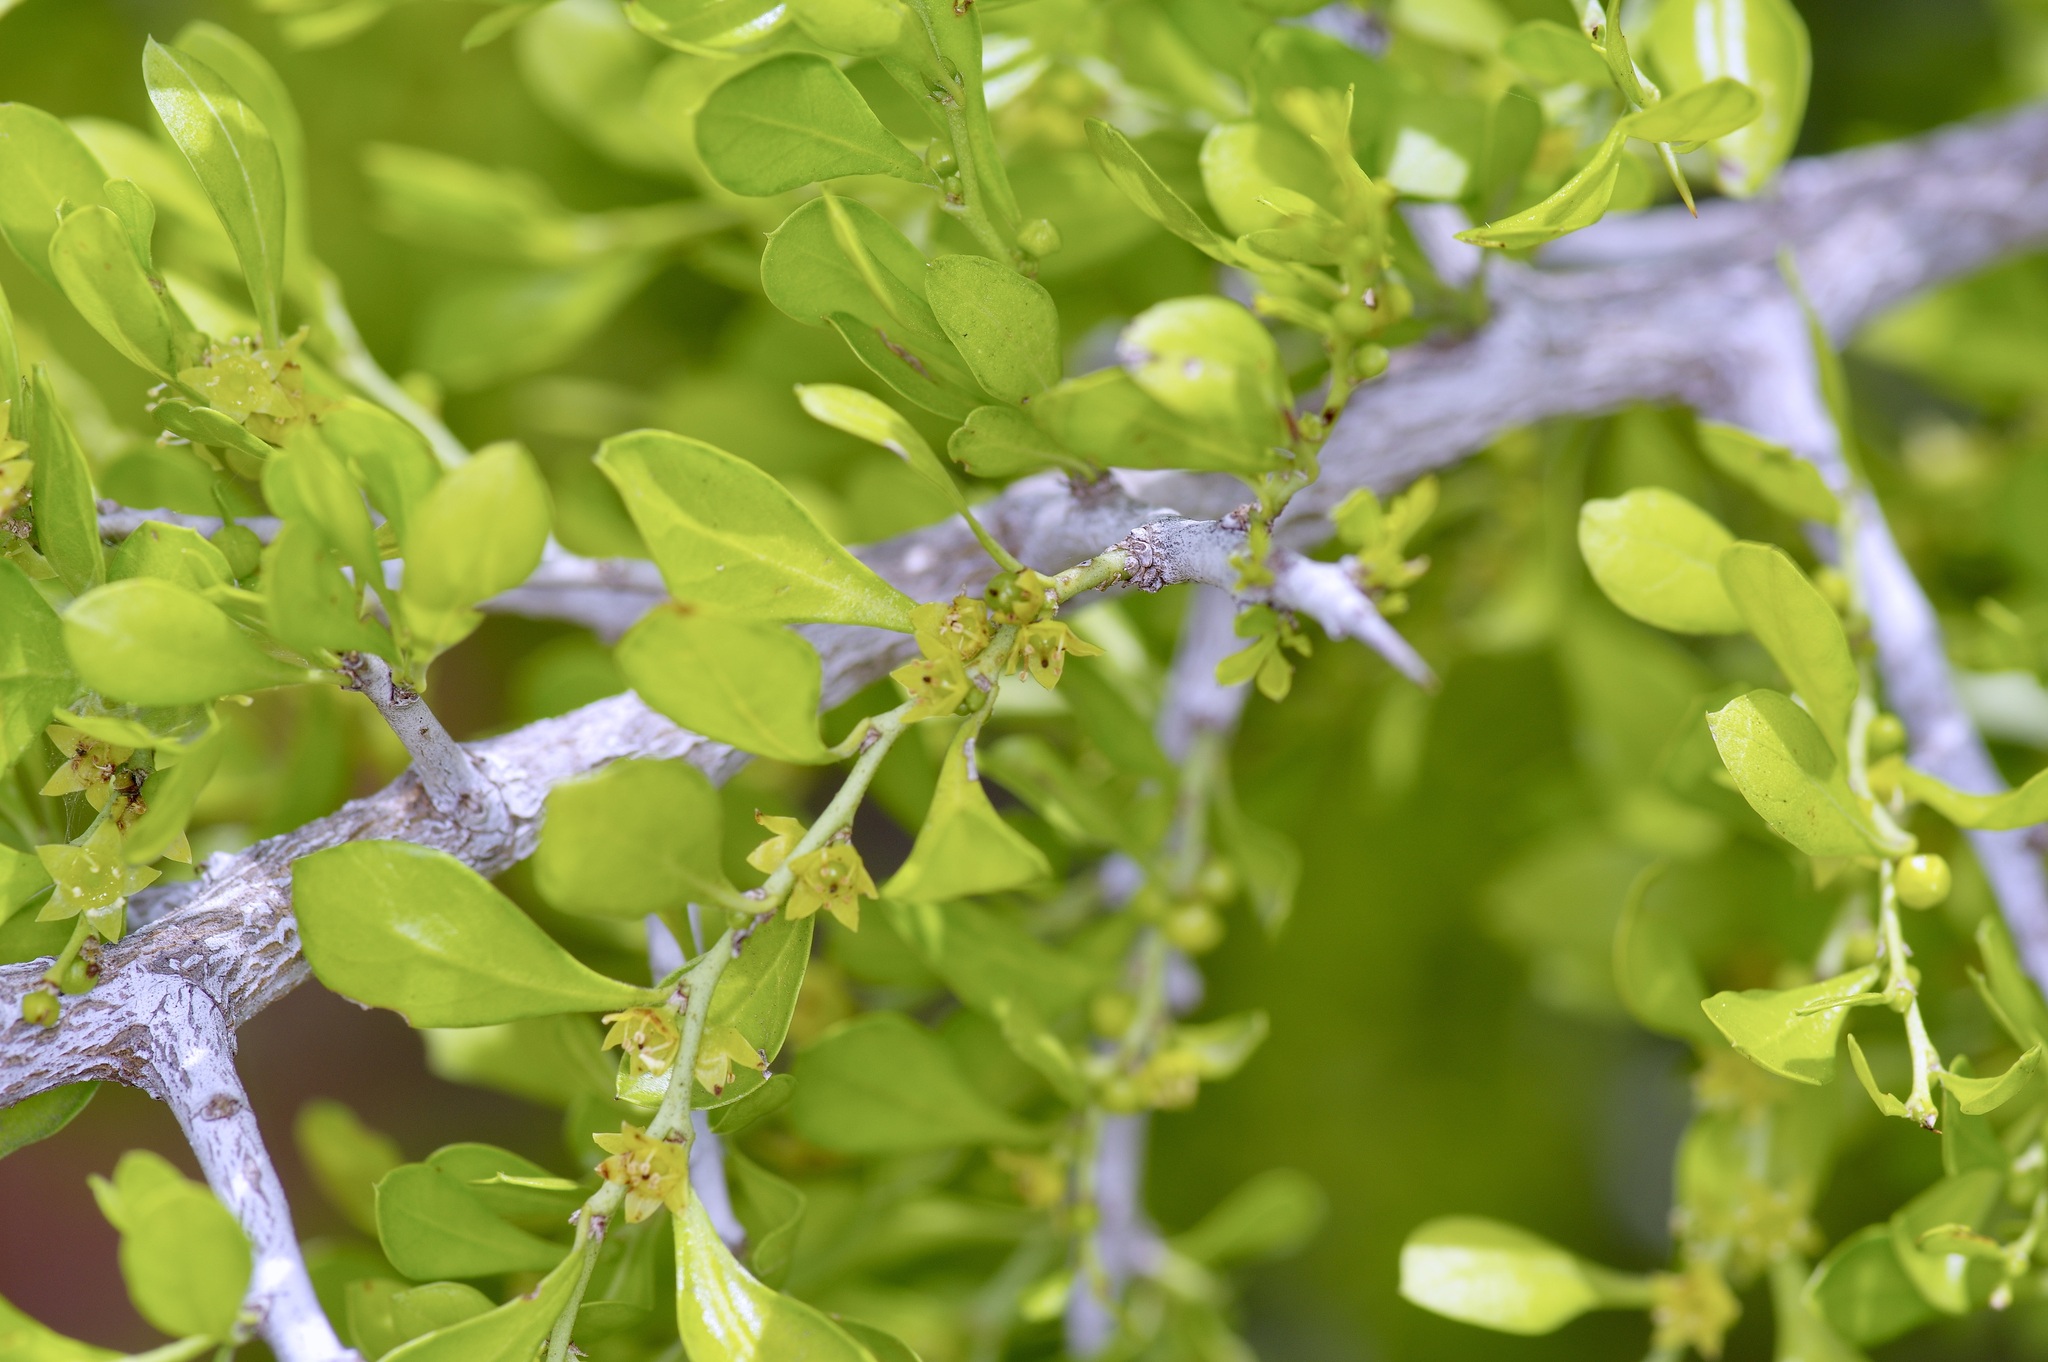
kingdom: Plantae
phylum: Tracheophyta
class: Magnoliopsida
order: Rosales
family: Rhamnaceae
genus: Condalia
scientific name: Condalia hookeri
